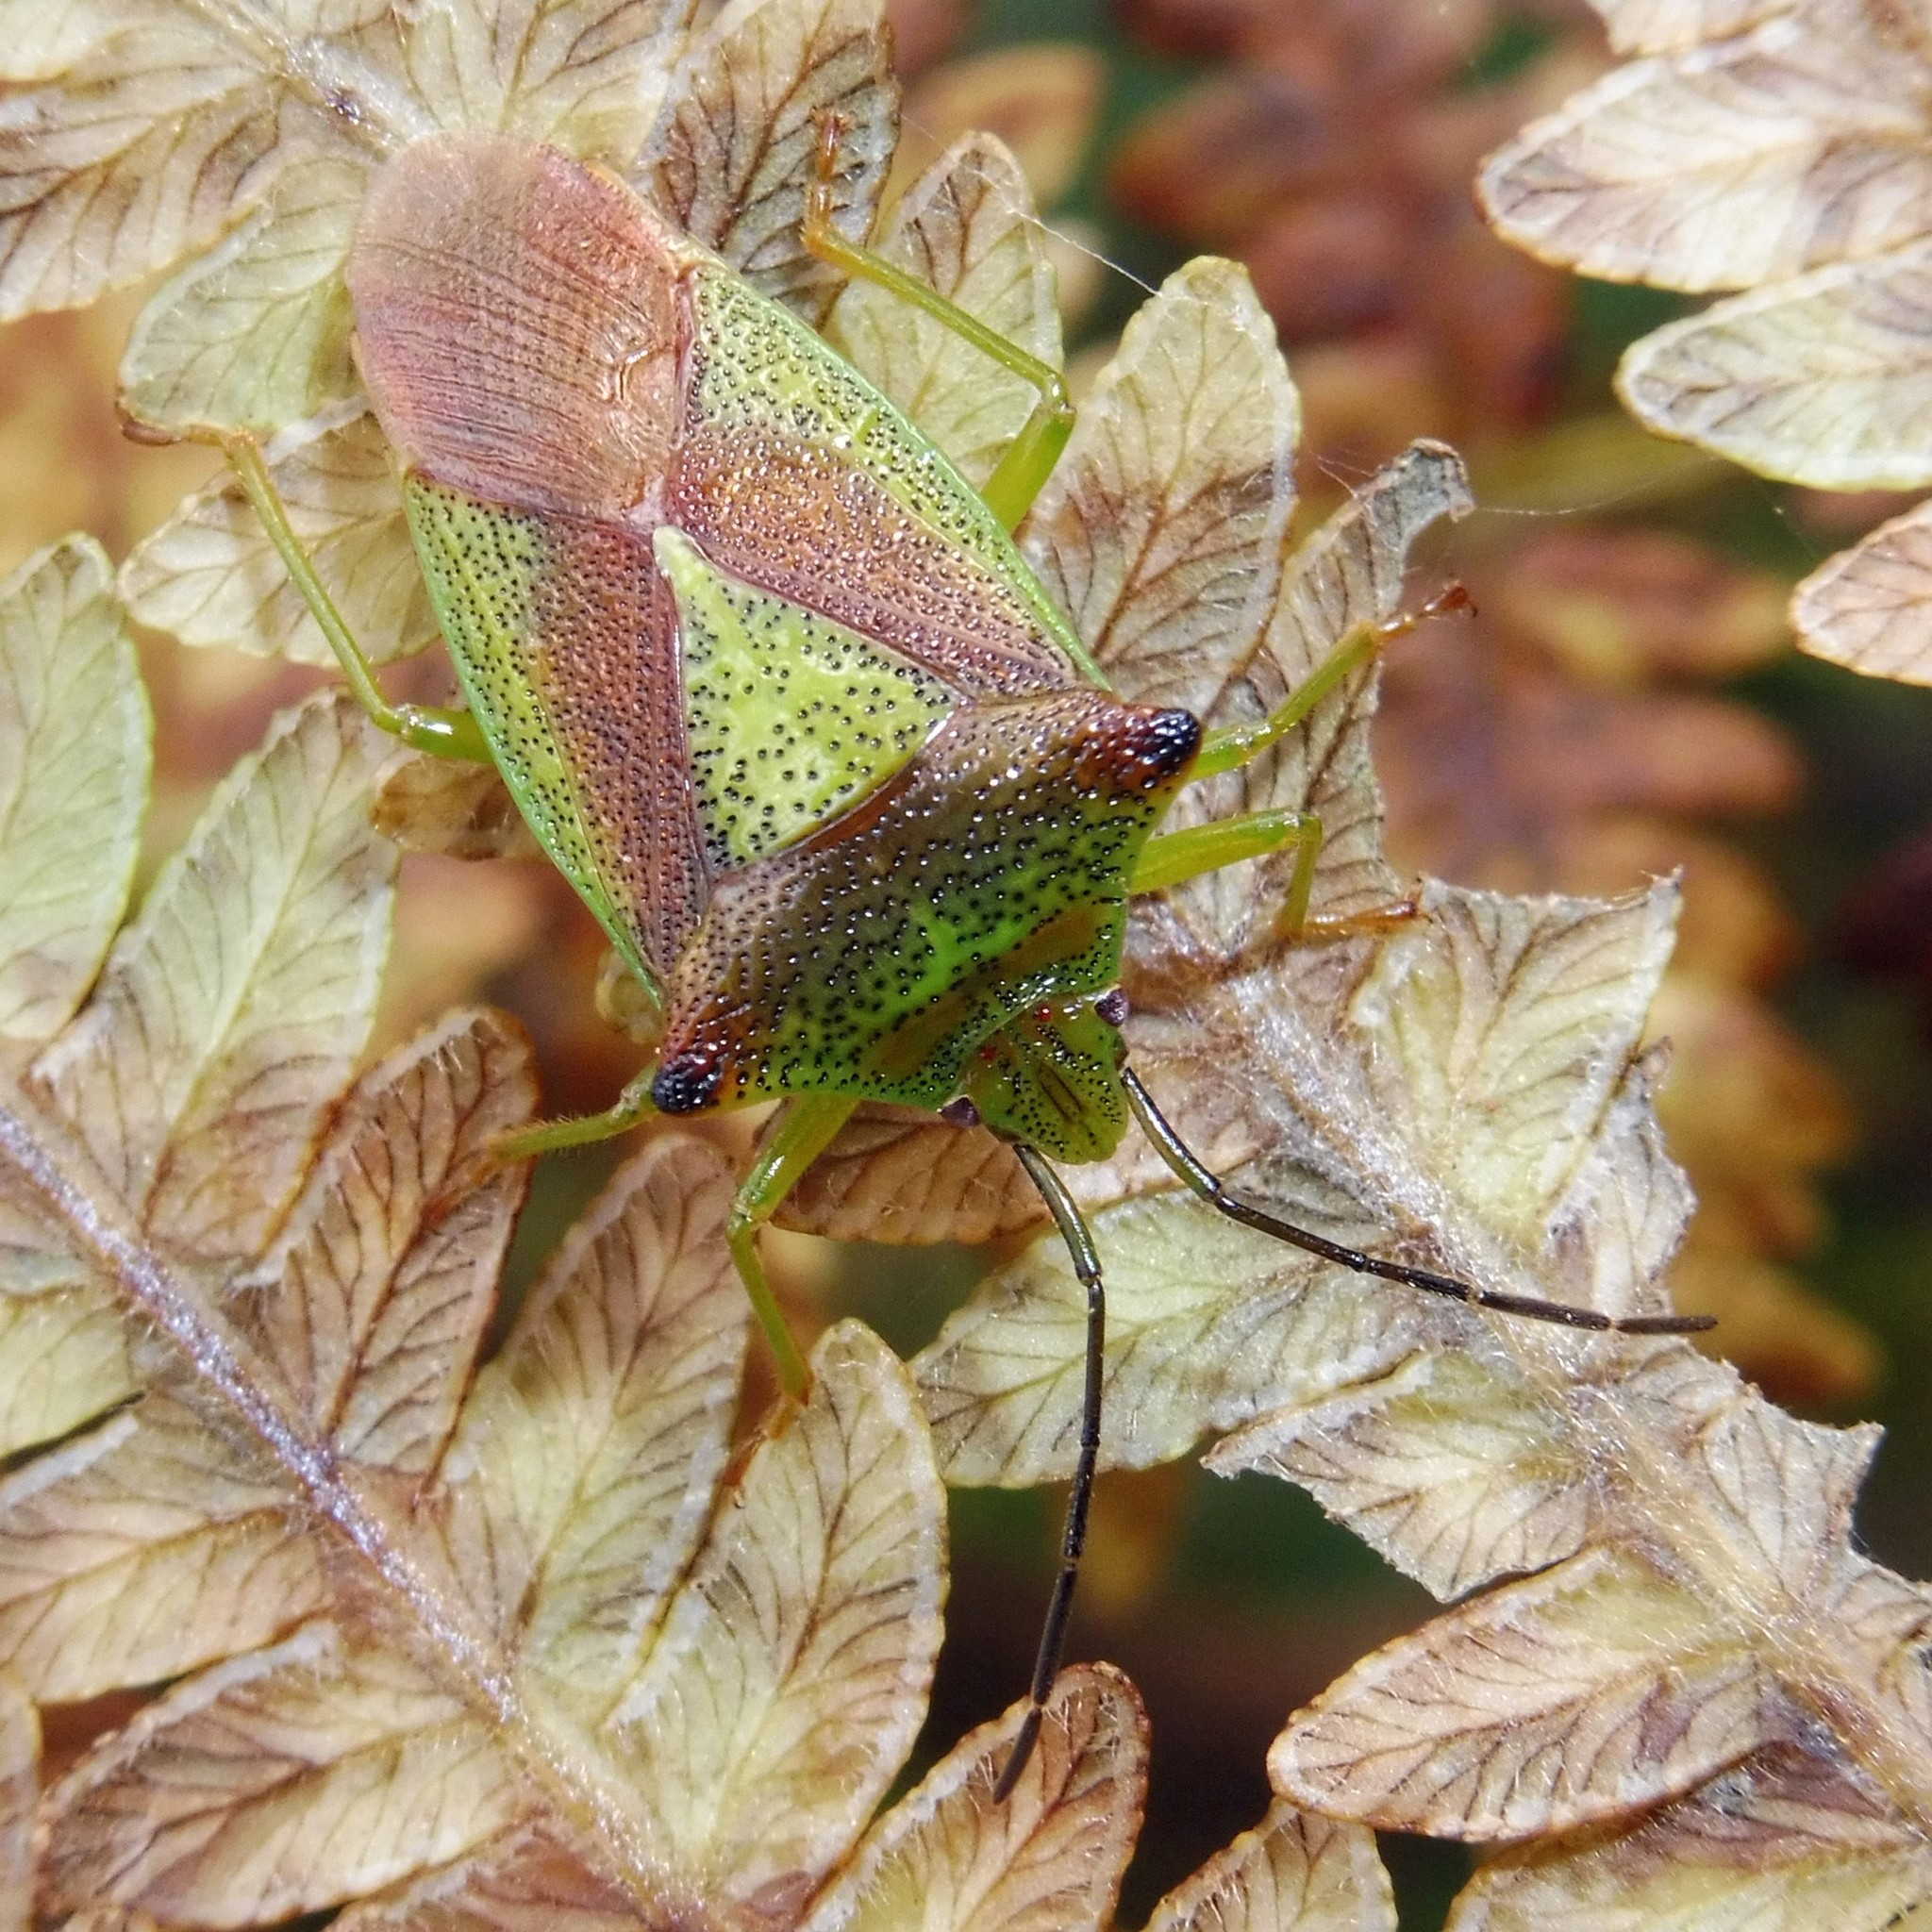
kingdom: Animalia
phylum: Arthropoda
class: Insecta
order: Hemiptera
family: Acanthosomatidae
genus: Acanthosoma
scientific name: Acanthosoma haemorrhoidale
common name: Hawthorn shieldbug
